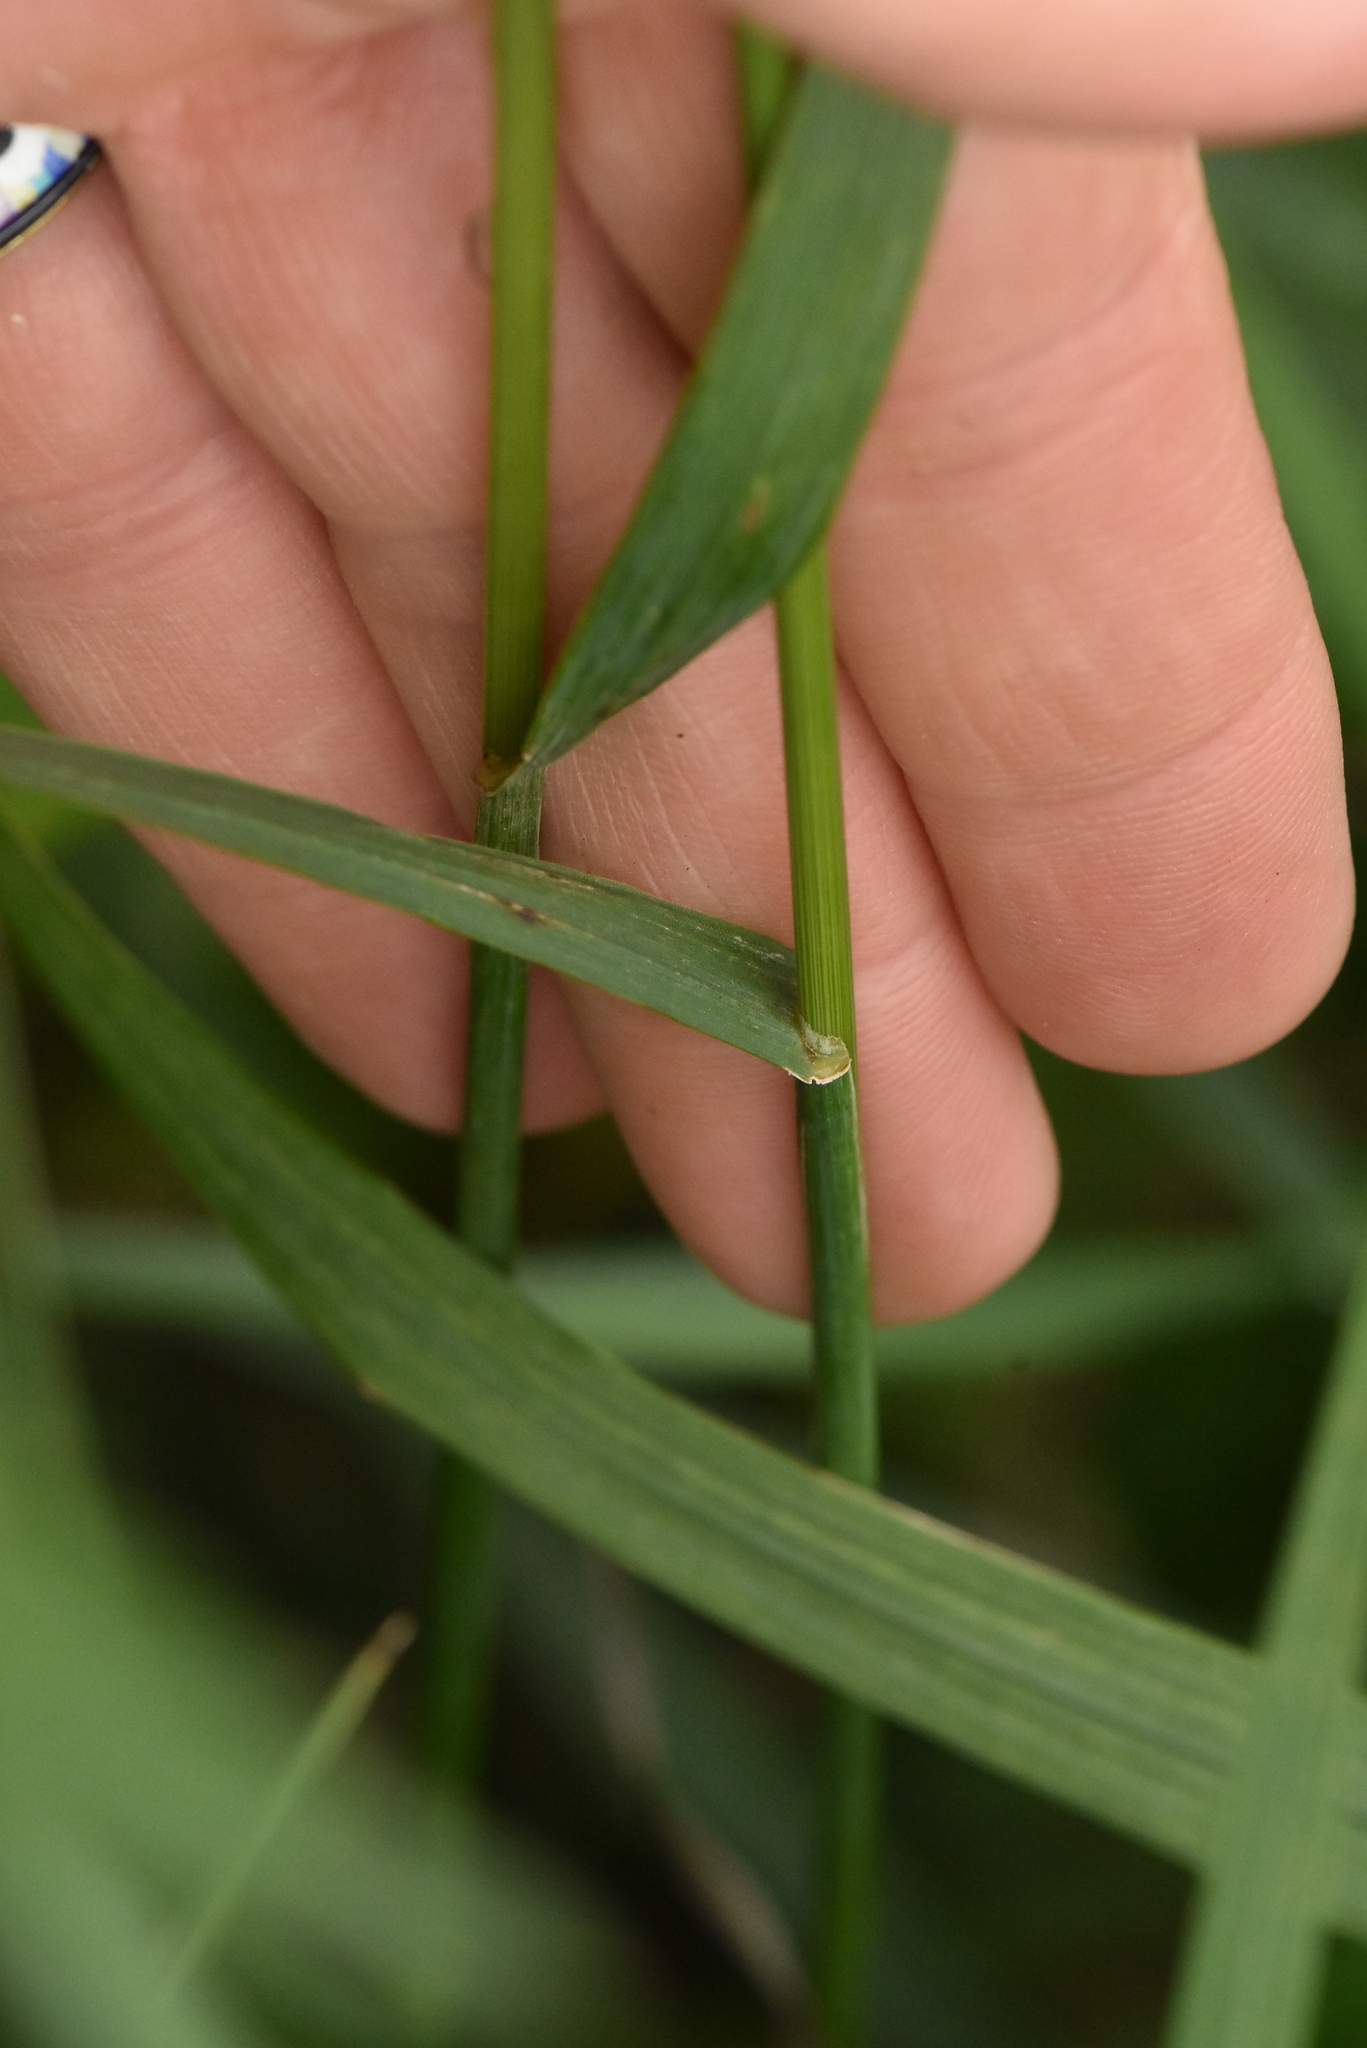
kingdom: Plantae
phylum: Tracheophyta
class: Liliopsida
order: Poales
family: Poaceae
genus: Bromus
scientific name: Bromus inermis
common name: Smooth brome
